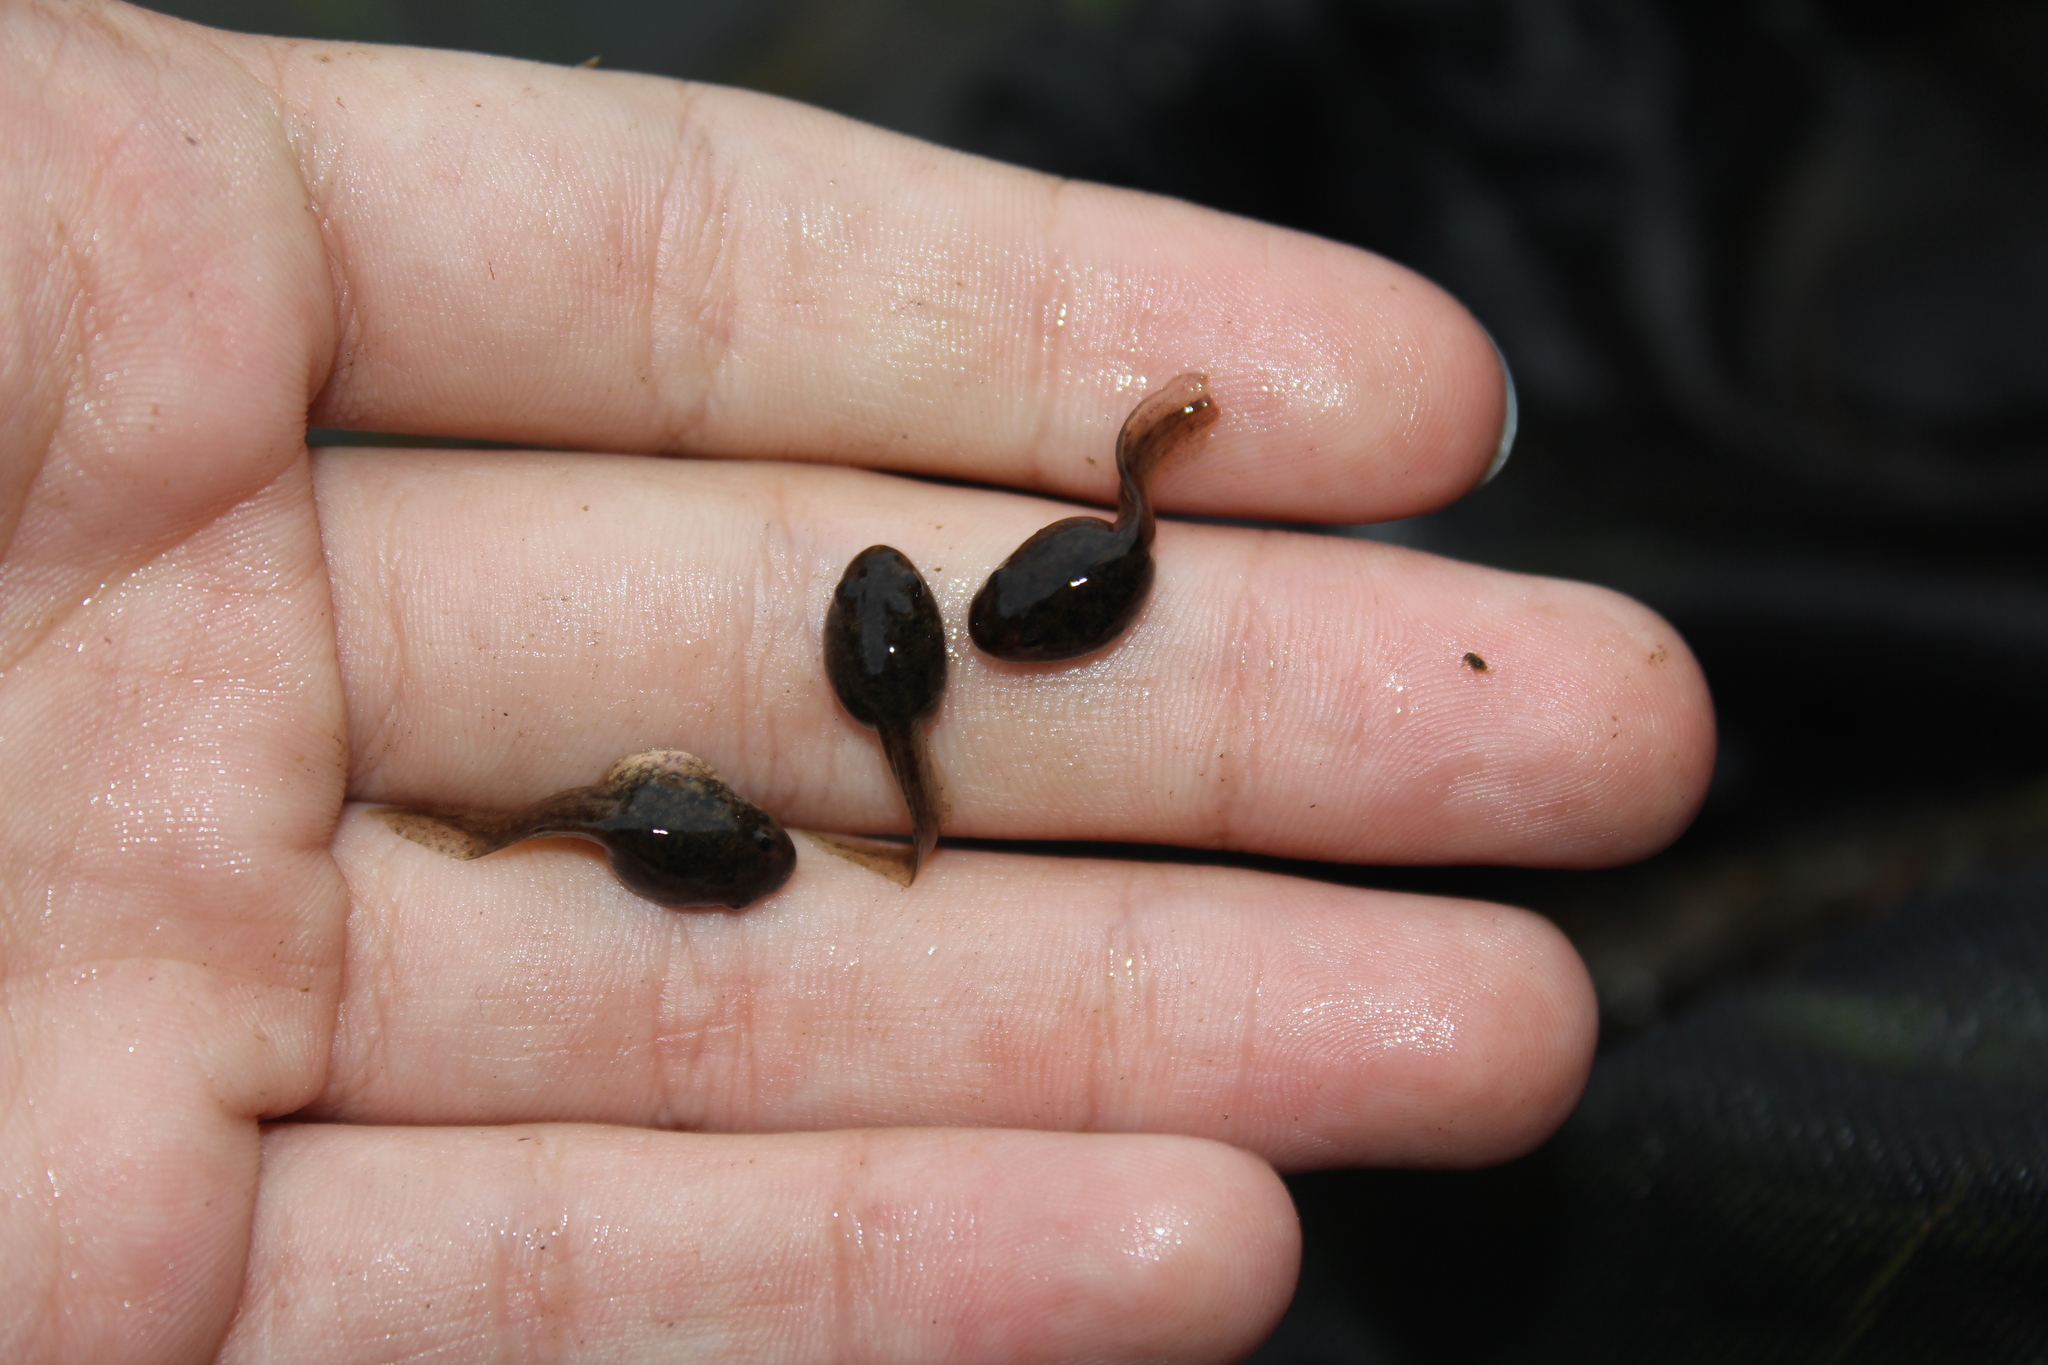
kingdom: Animalia
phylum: Chordata
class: Amphibia
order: Anura
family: Ranidae
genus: Lithobates
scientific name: Lithobates clamitans
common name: Green frog
